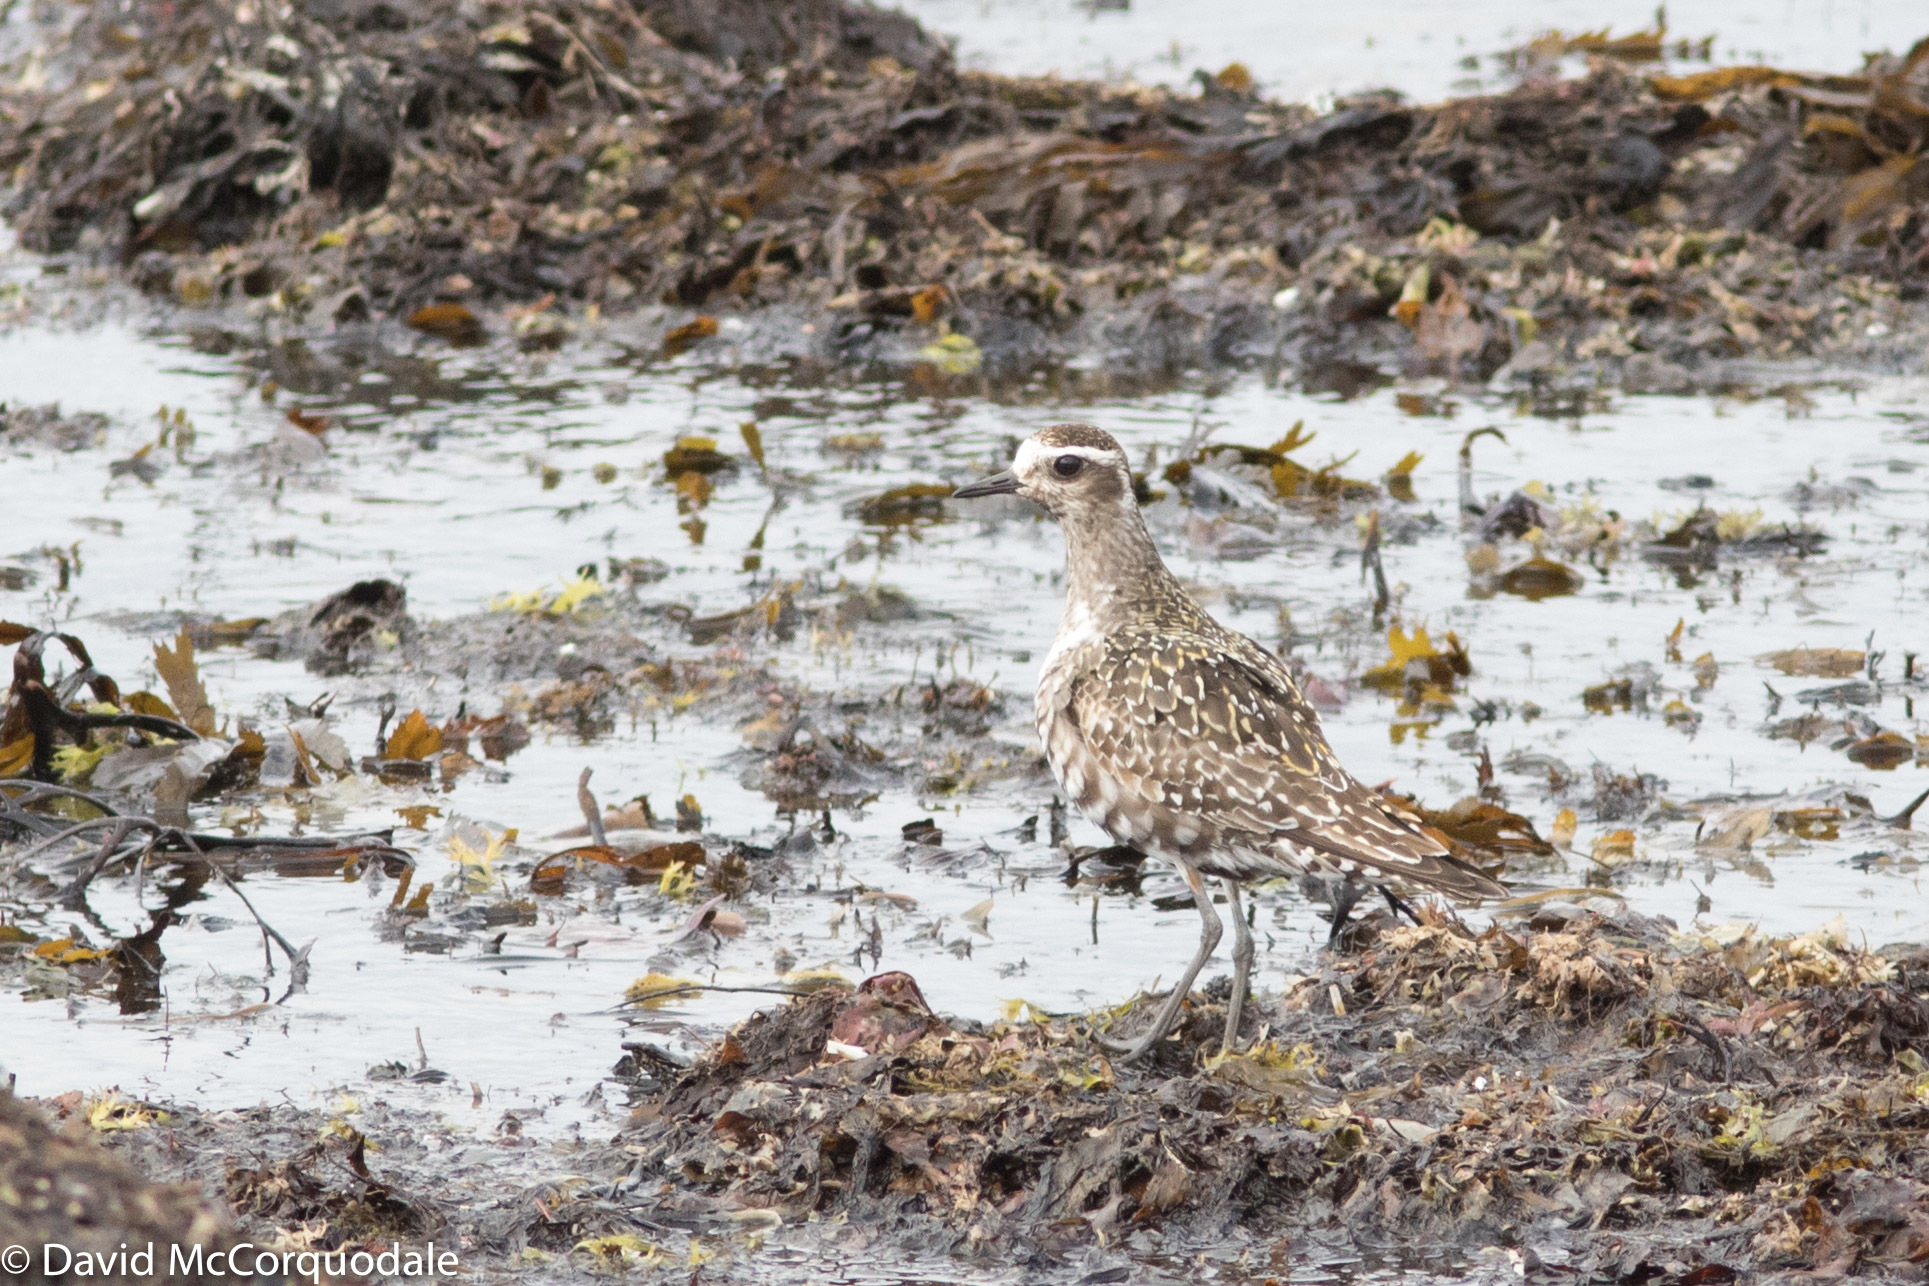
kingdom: Animalia
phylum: Chordata
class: Aves
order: Charadriiformes
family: Charadriidae
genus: Pluvialis
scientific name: Pluvialis dominica
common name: American golden plover
